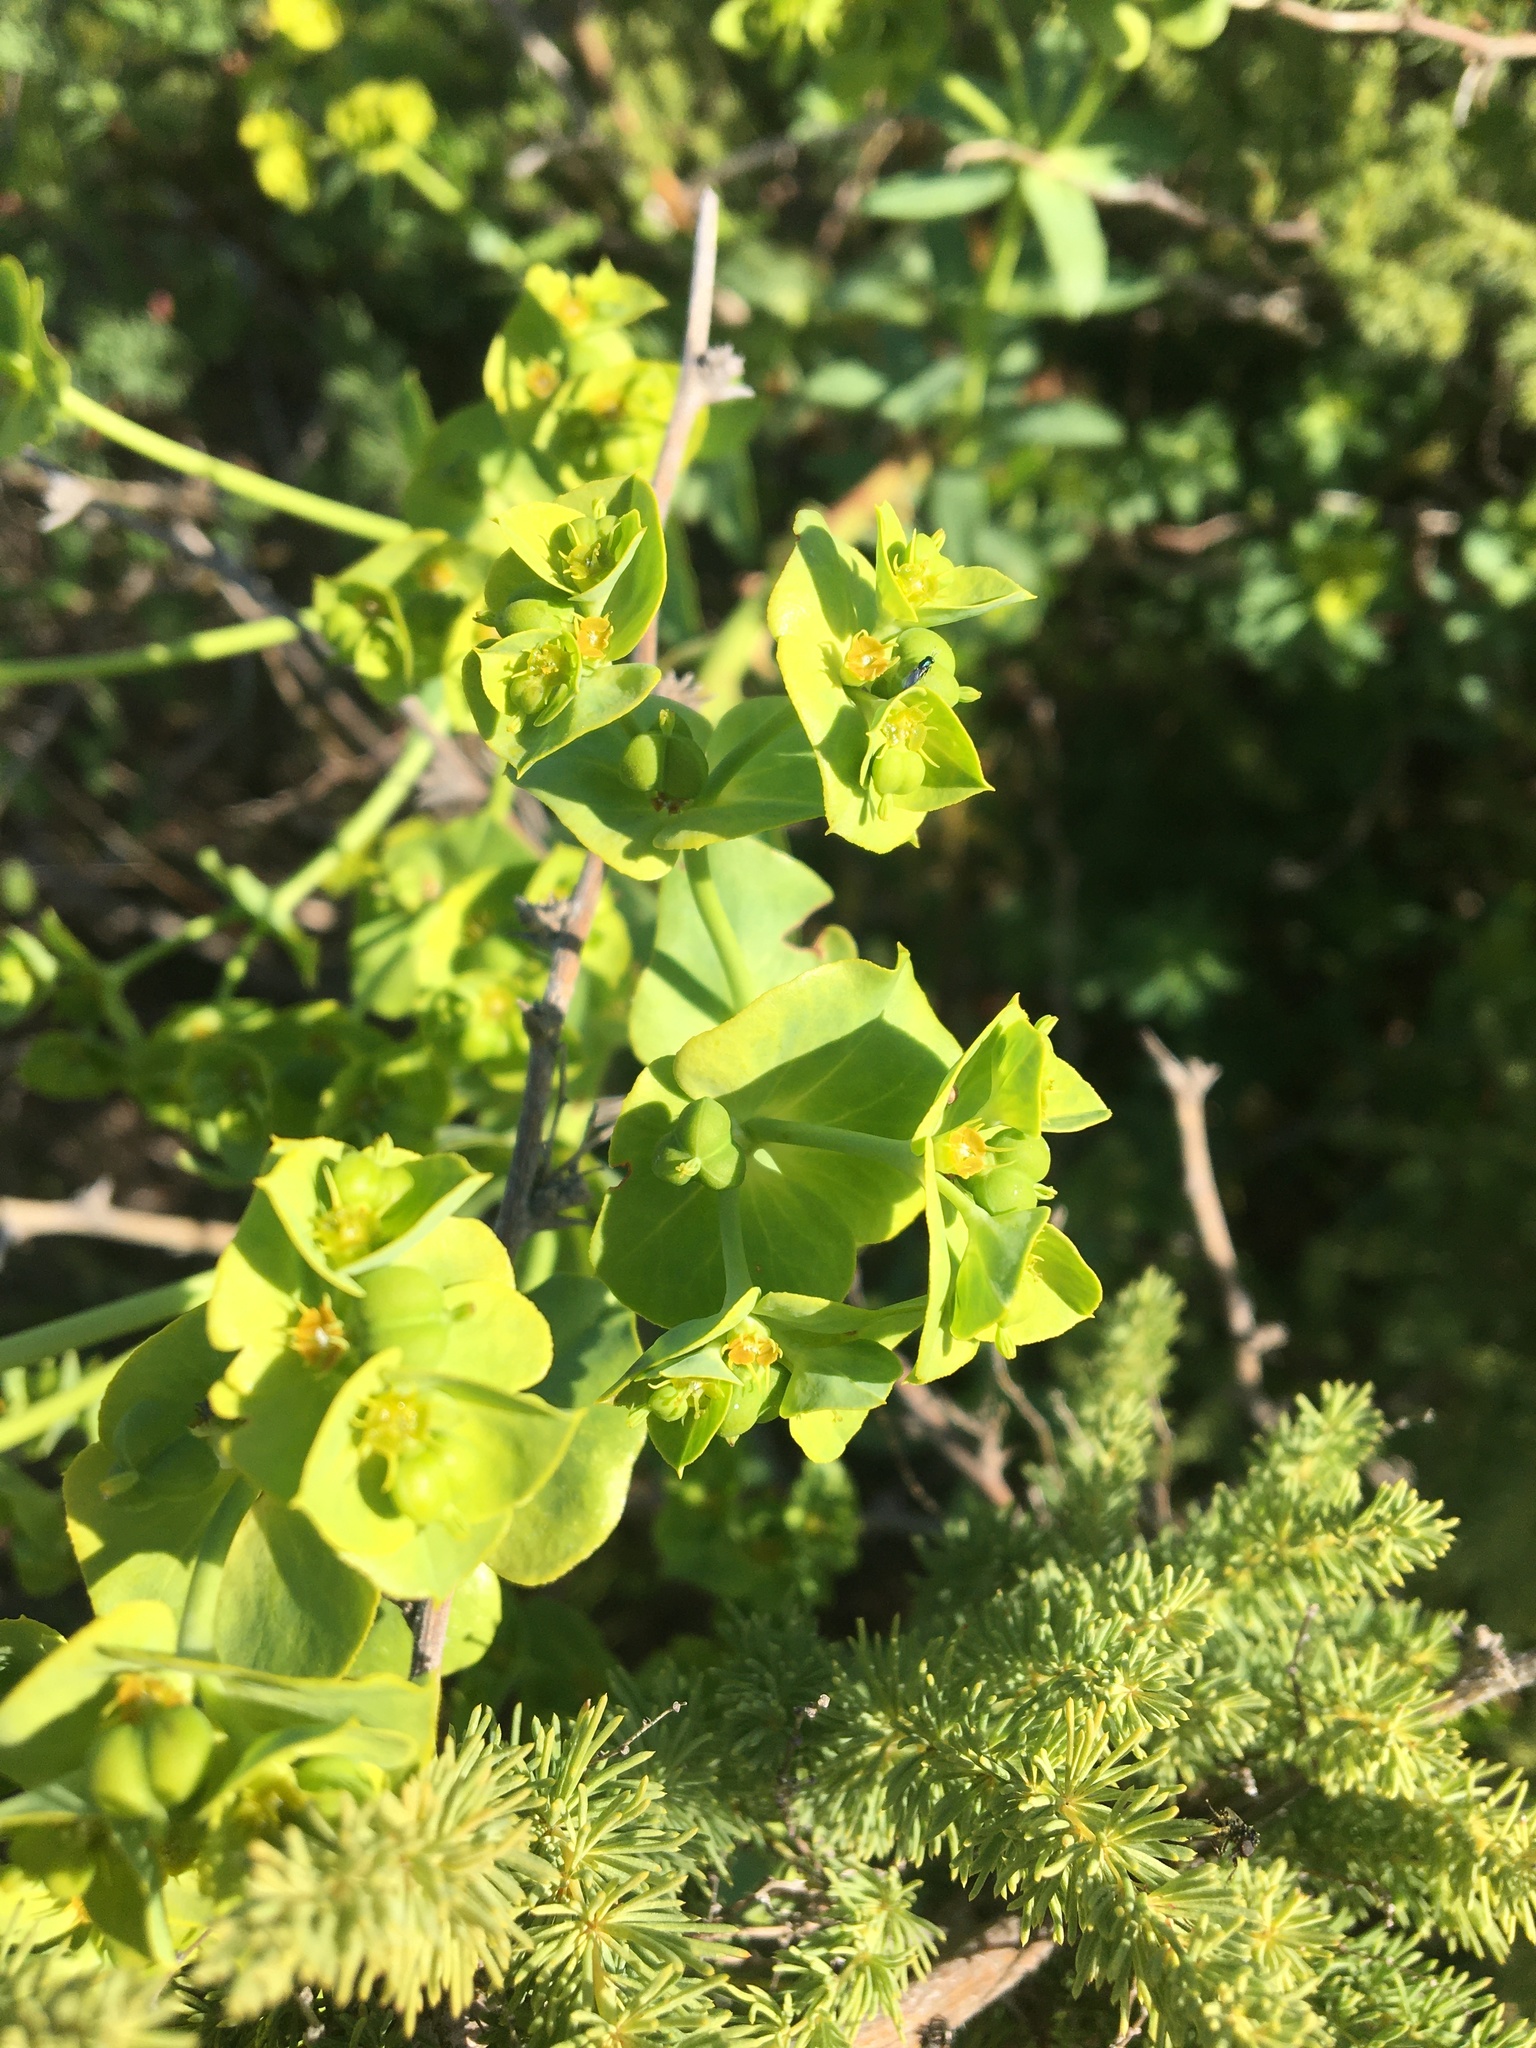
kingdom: Plantae
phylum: Tracheophyta
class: Magnoliopsida
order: Malpighiales
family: Euphorbiaceae
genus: Euphorbia
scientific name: Euphorbia terracina
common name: Geraldton carnation weed
